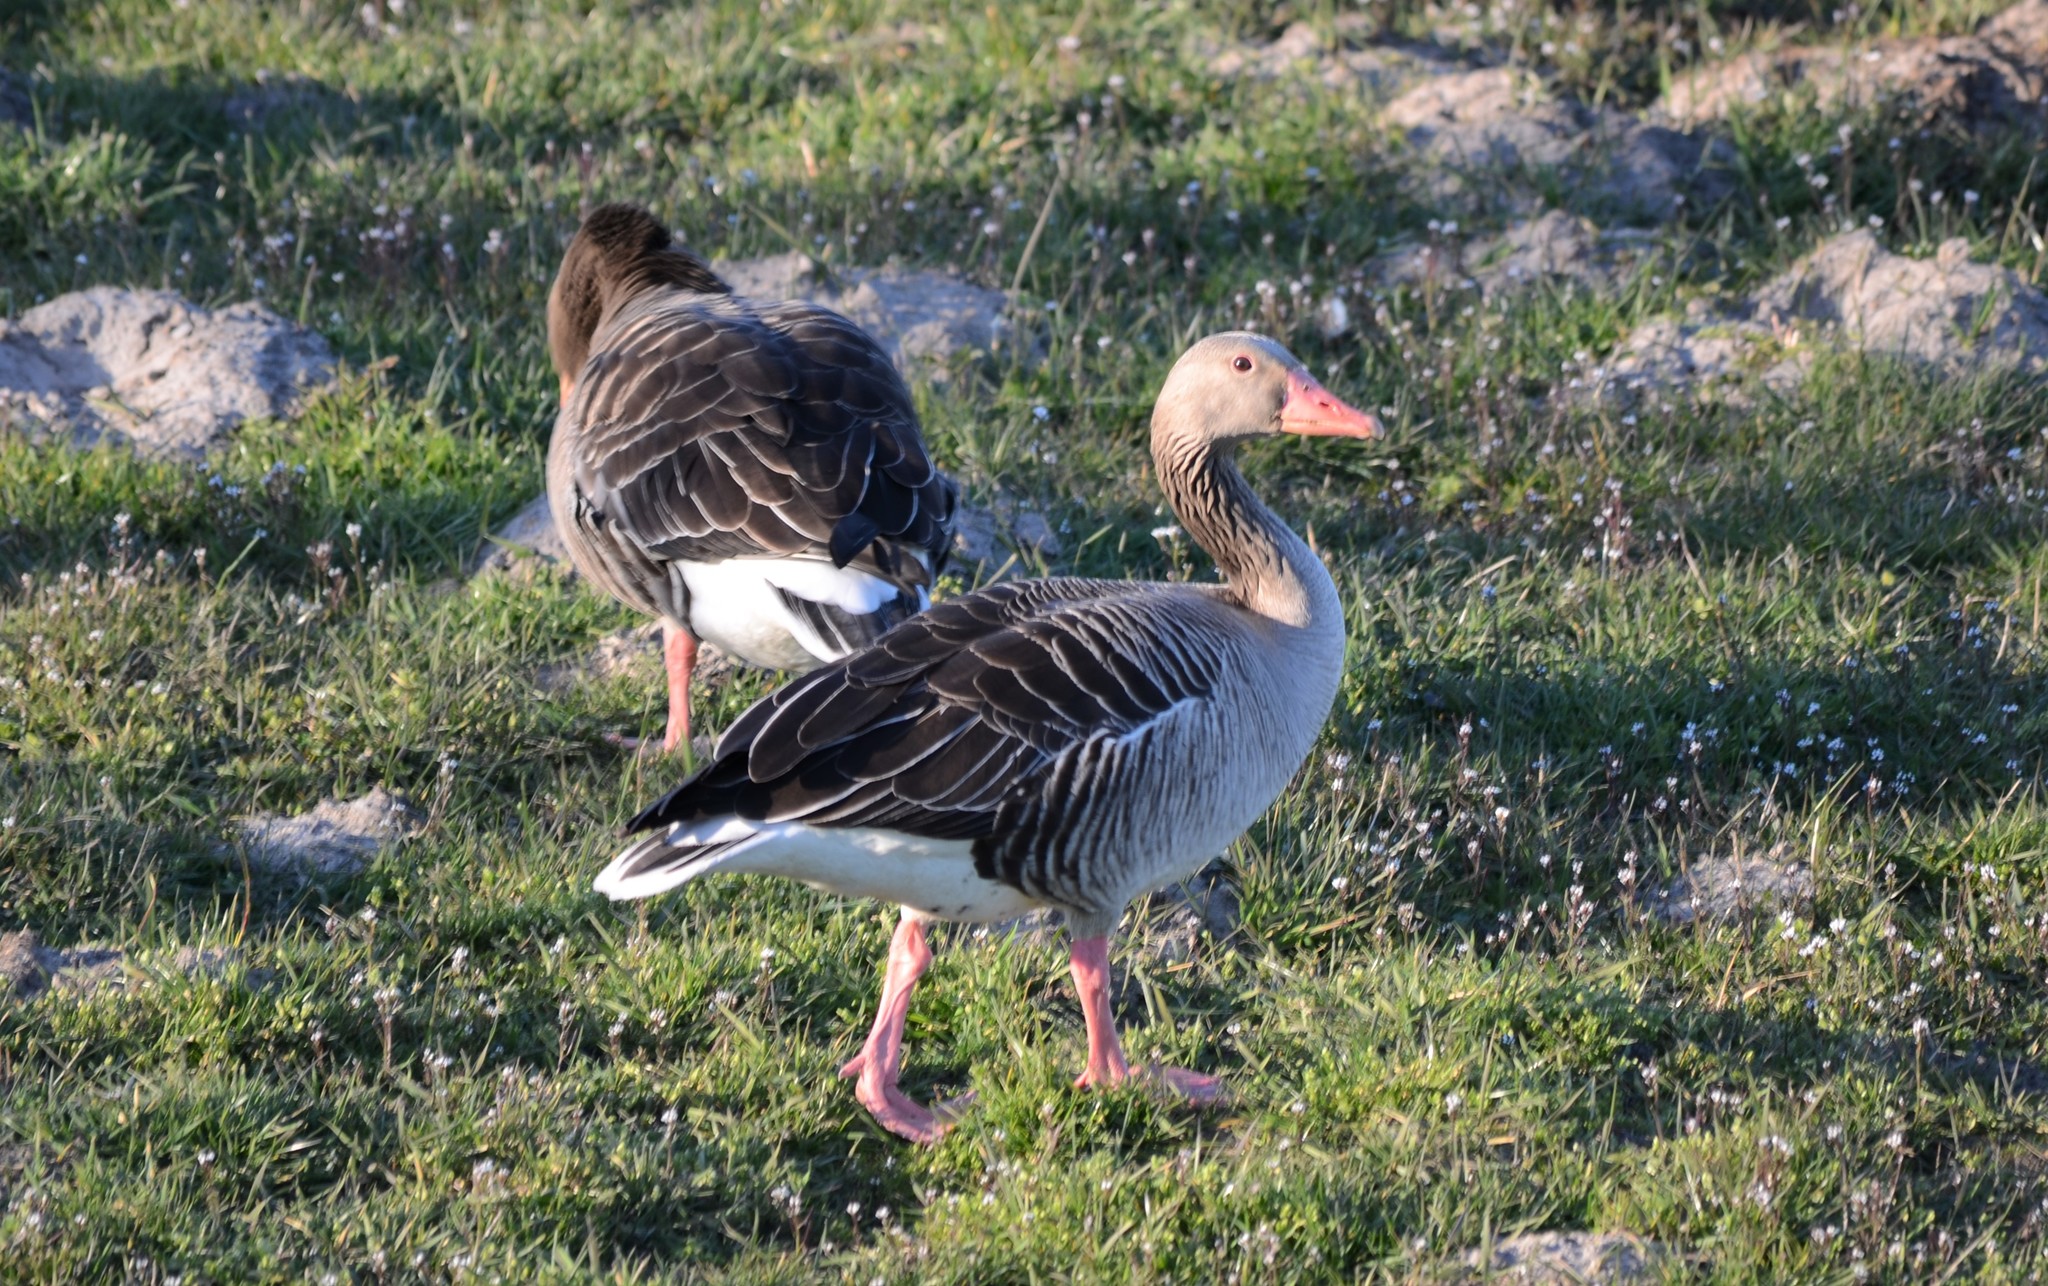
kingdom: Animalia
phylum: Chordata
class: Aves
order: Anseriformes
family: Anatidae
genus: Anser
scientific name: Anser anser
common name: Greylag goose
